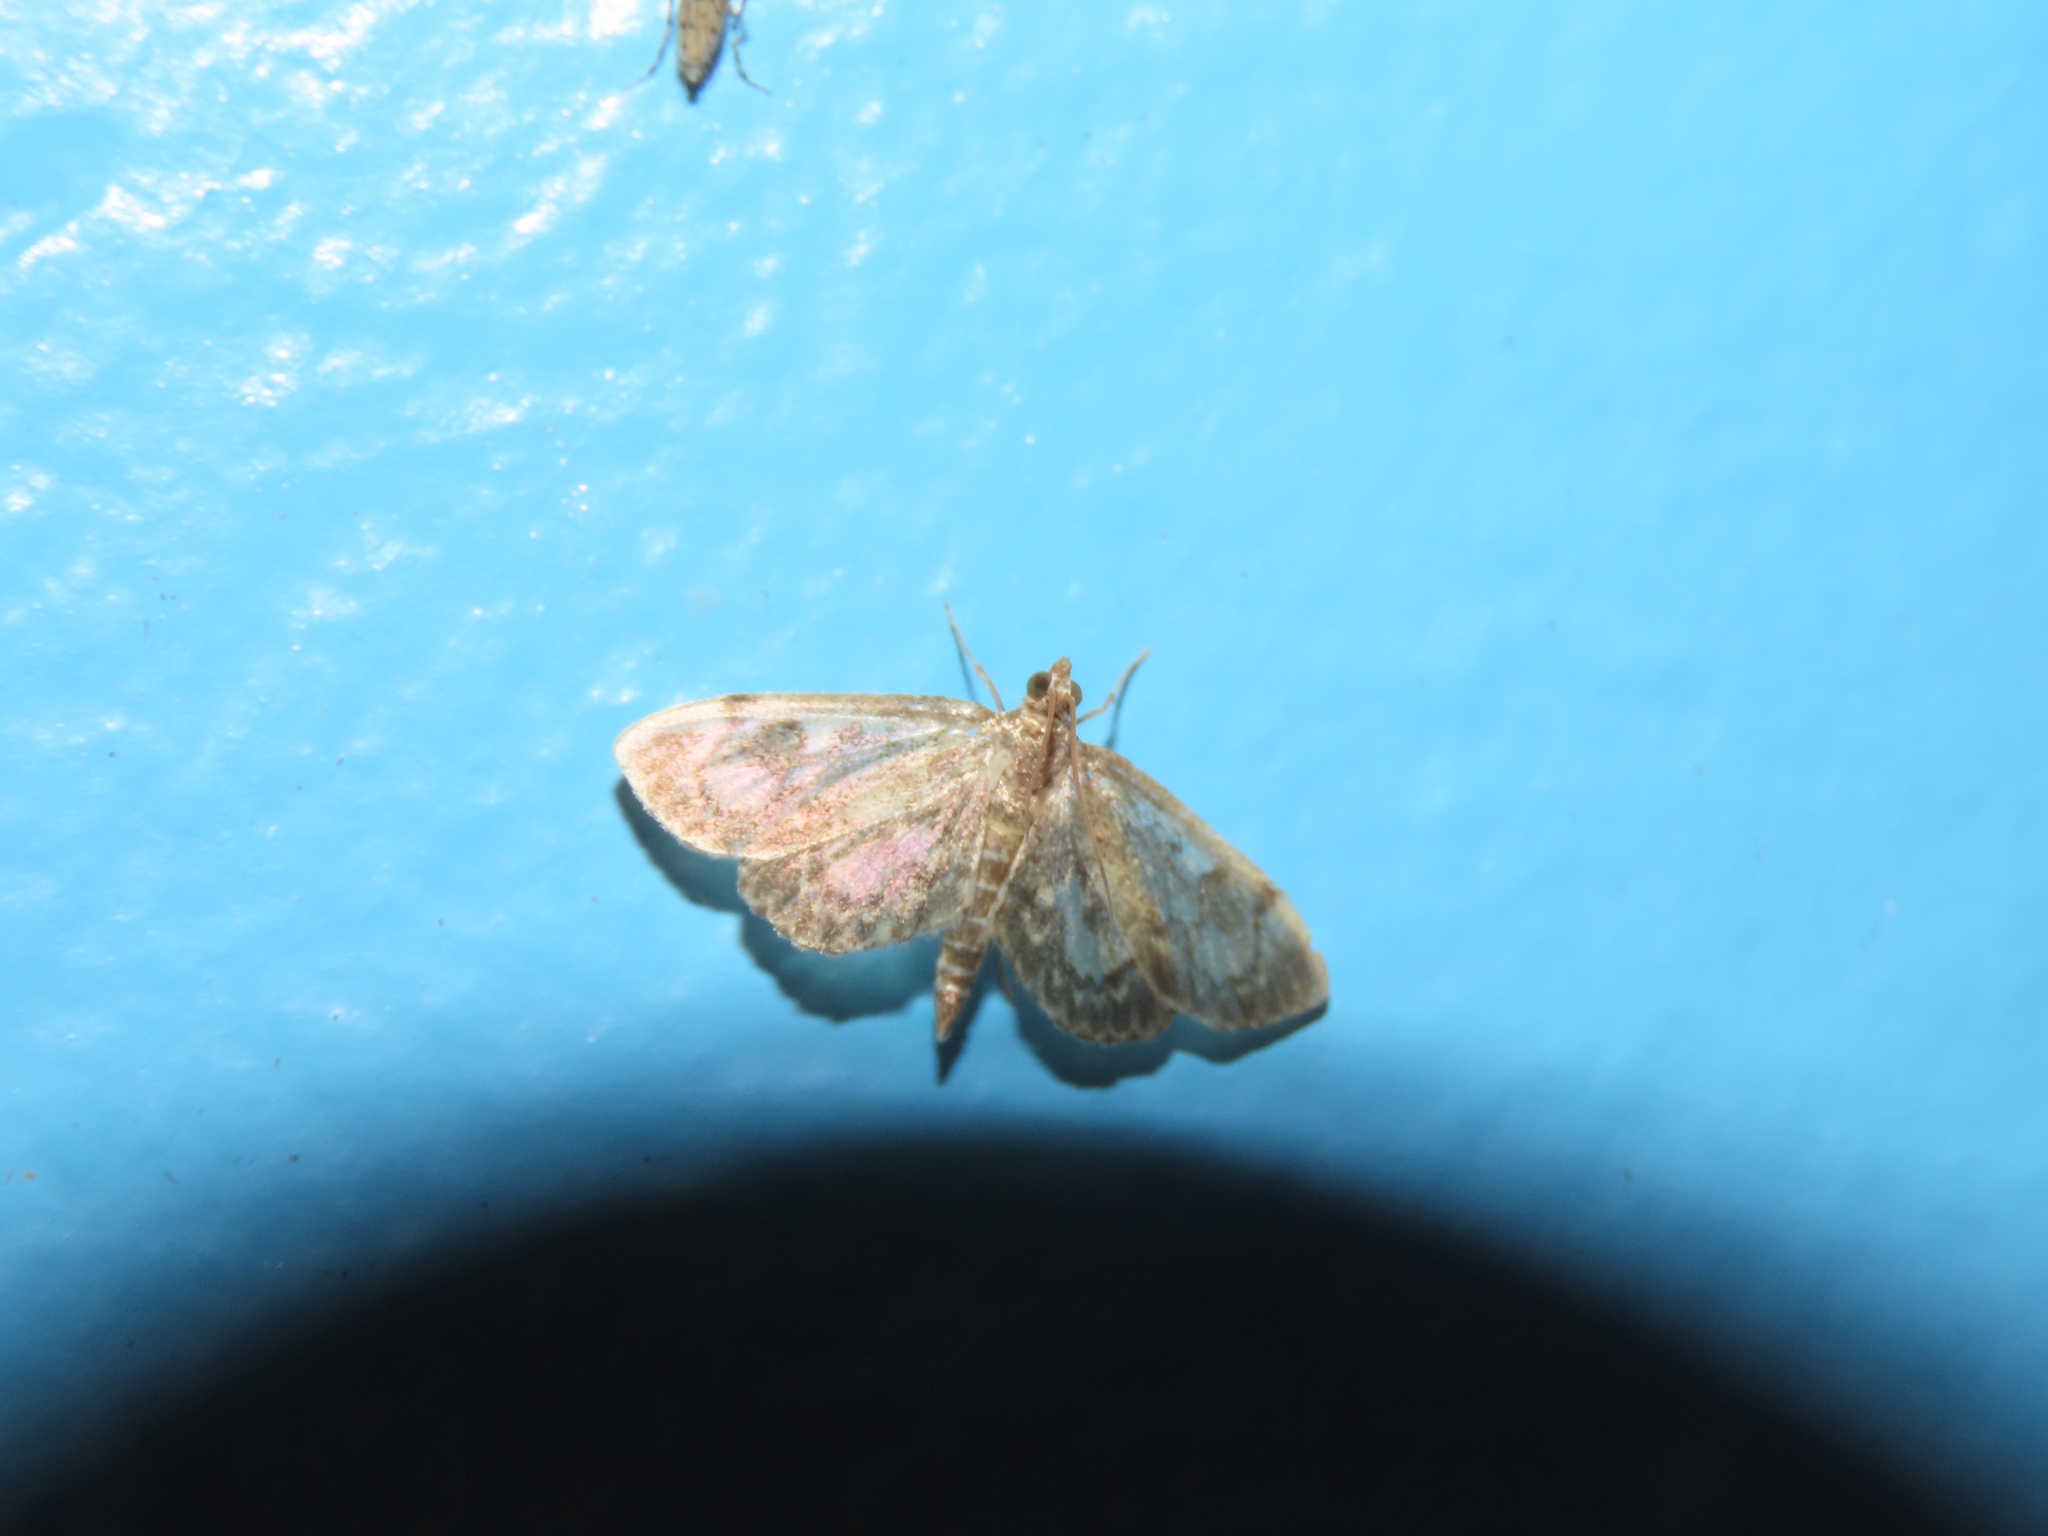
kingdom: Animalia
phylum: Arthropoda
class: Insecta
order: Lepidoptera
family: Crambidae
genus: Anania
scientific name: Anania
